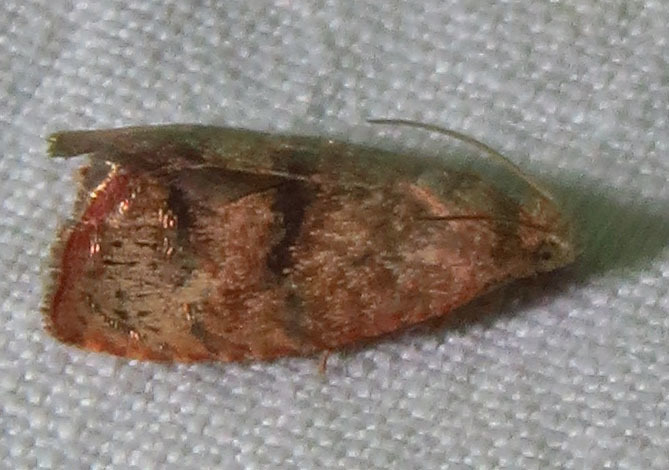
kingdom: Animalia
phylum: Arthropoda
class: Insecta
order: Lepidoptera
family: Tortricidae
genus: Cydia
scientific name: Cydia latiferreana
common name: Filbertworm moth
